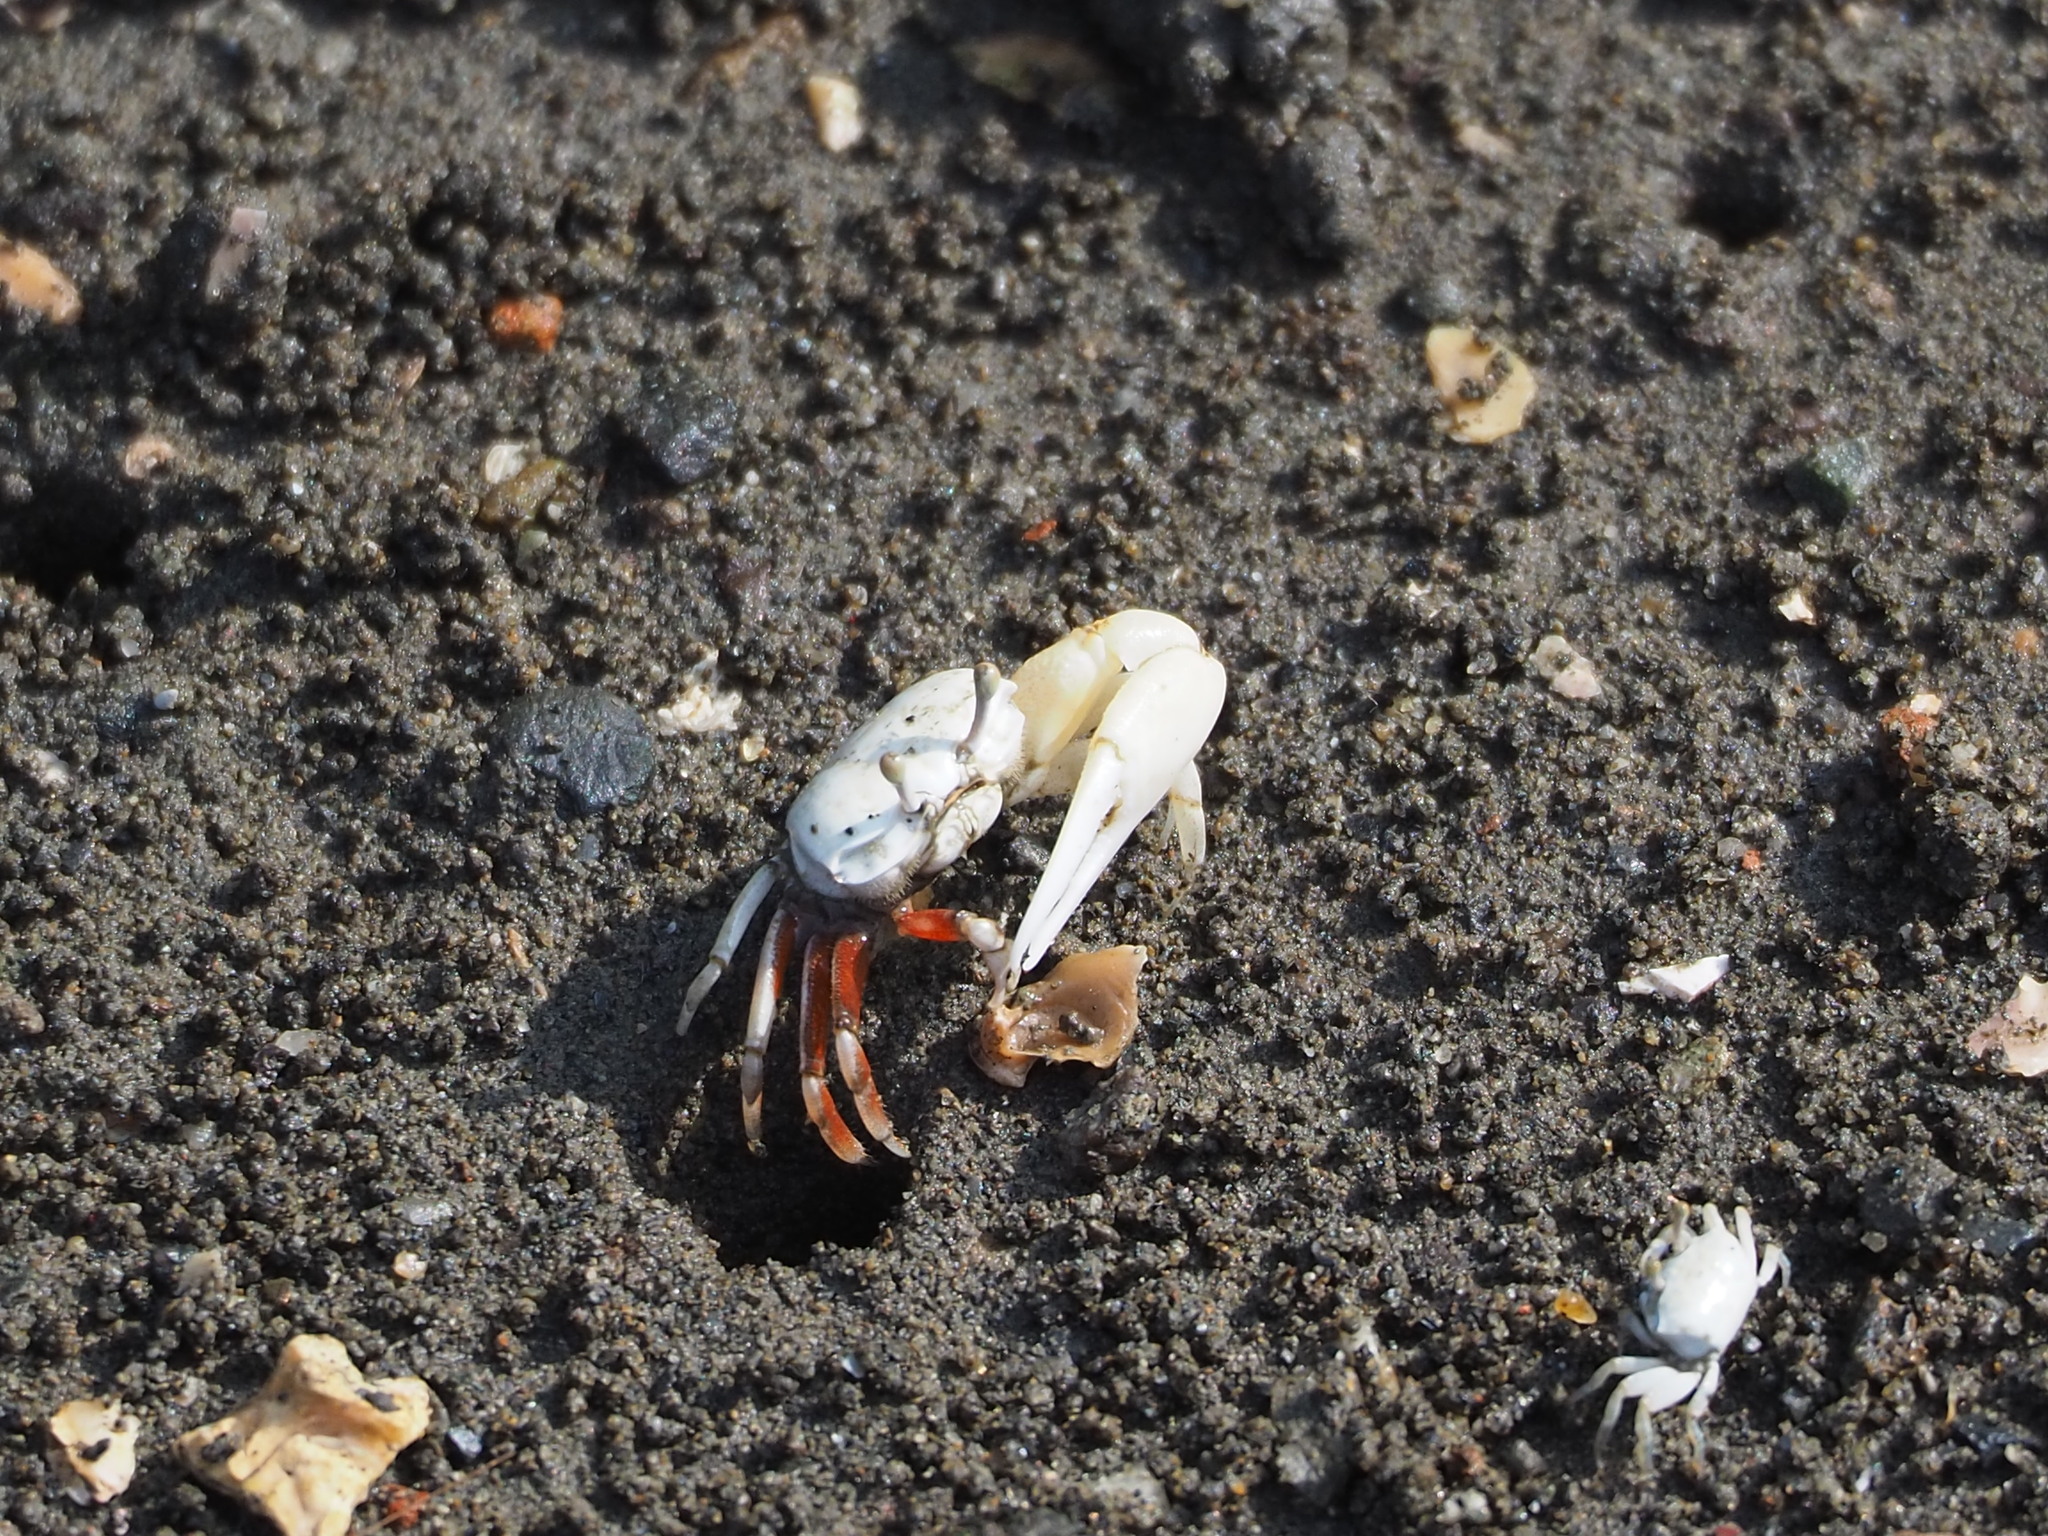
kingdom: Animalia
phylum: Arthropoda
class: Malacostraca
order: Decapoda
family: Ocypodidae
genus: Austruca
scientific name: Austruca lactea
